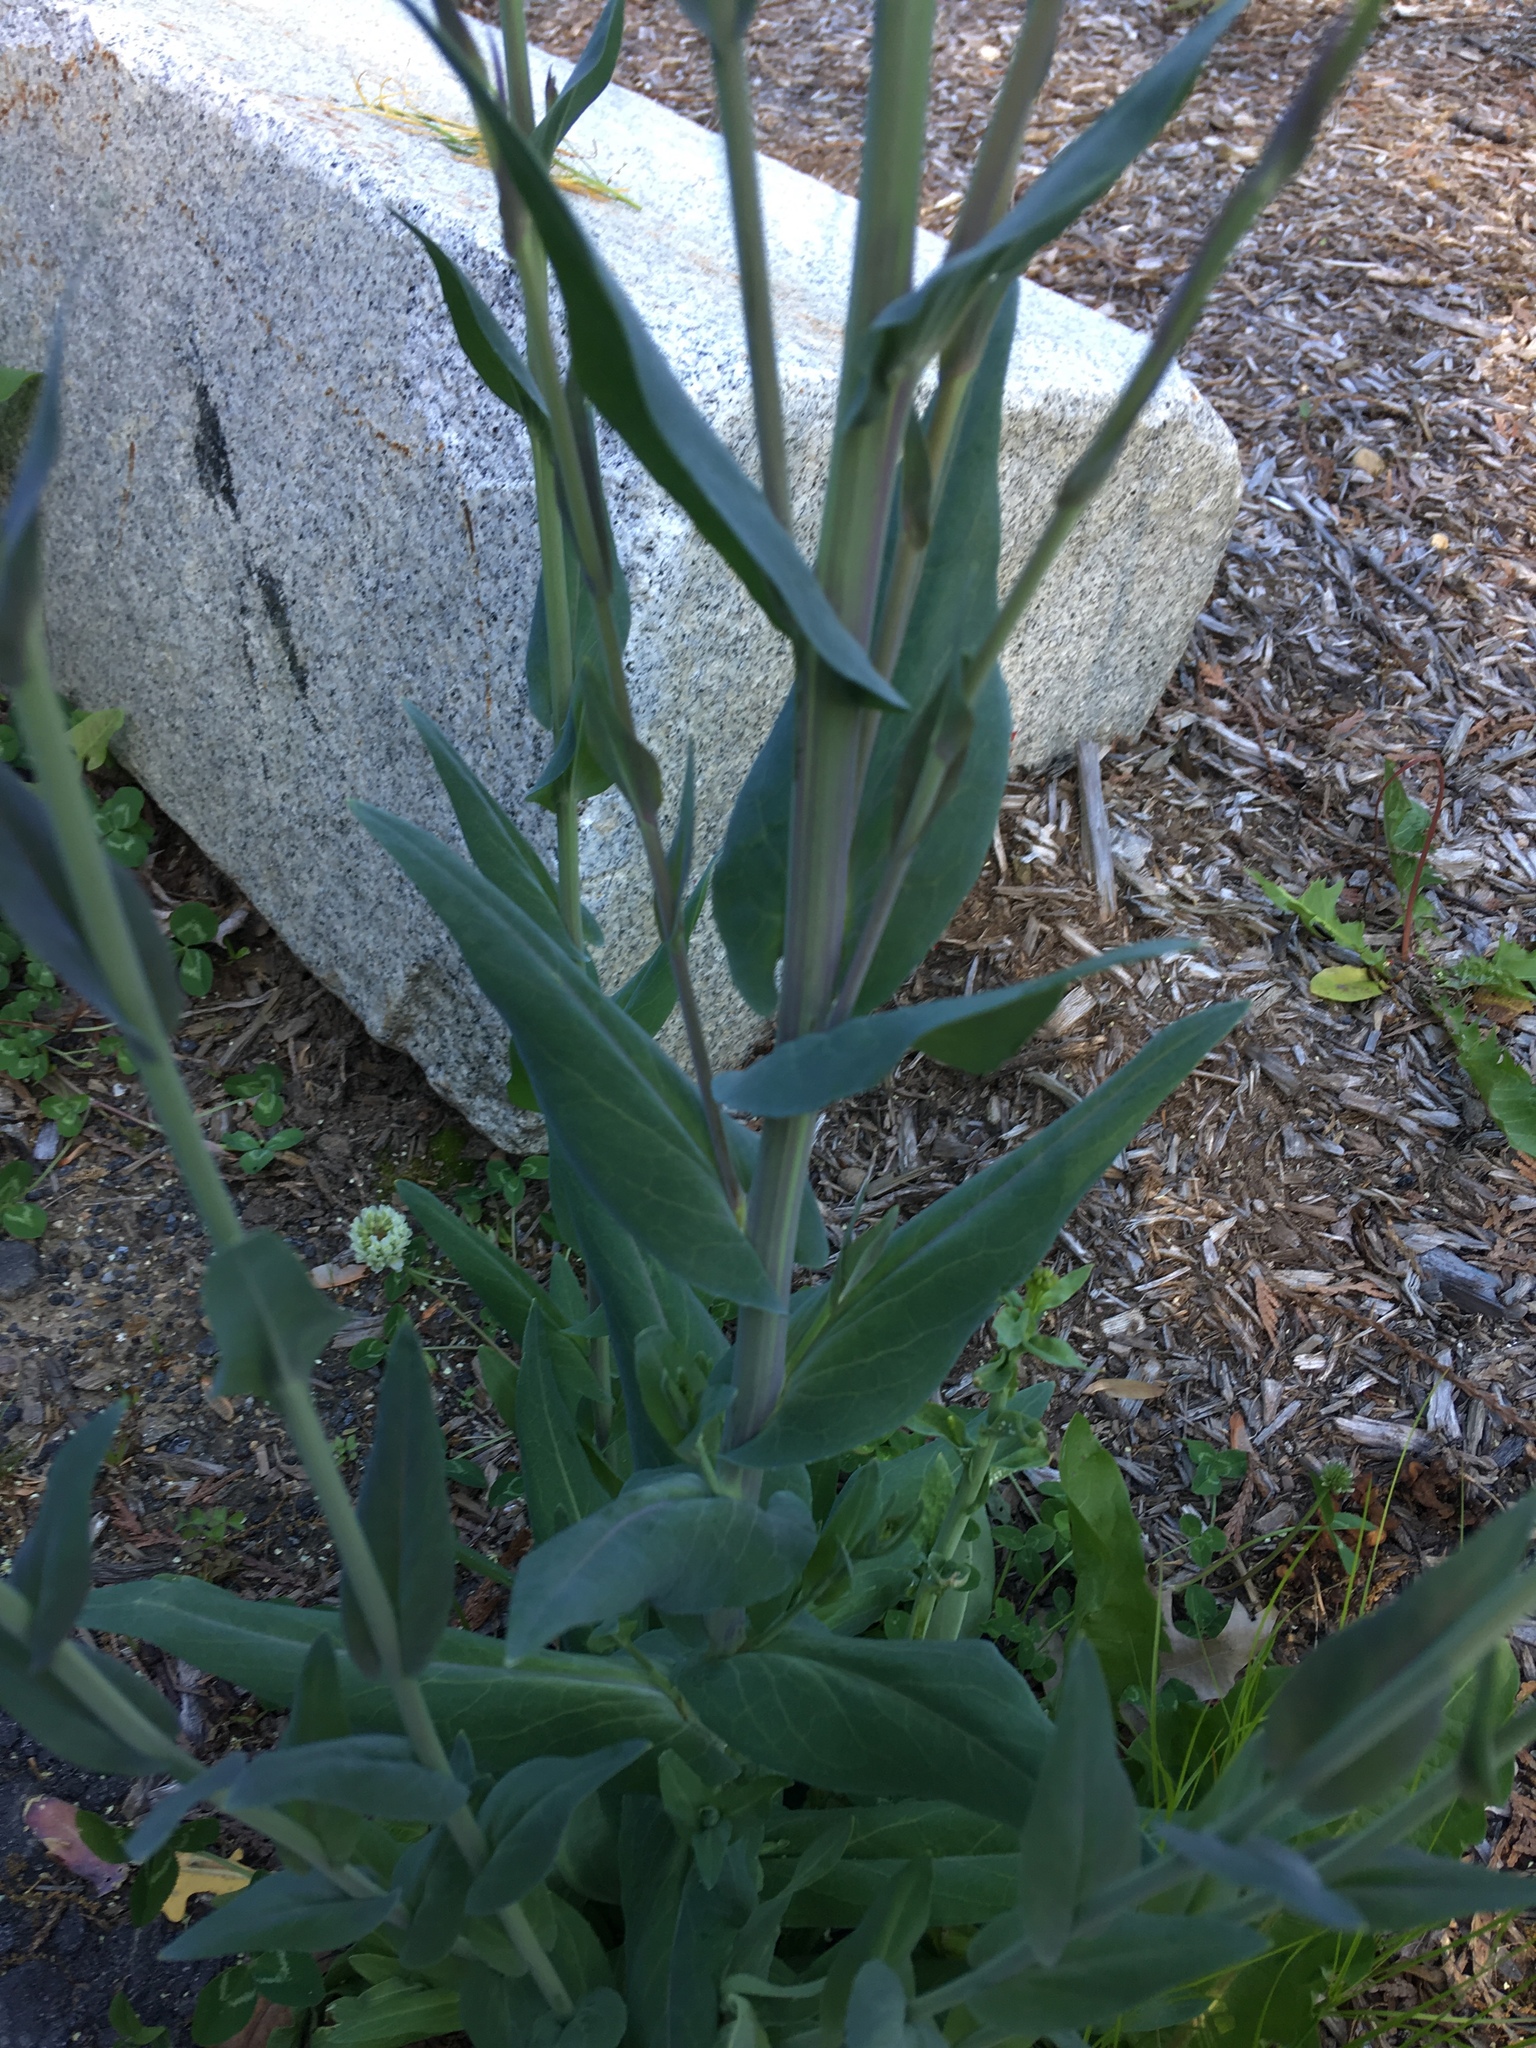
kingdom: Plantae
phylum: Tracheophyta
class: Magnoliopsida
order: Brassicales
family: Brassicaceae
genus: Turritis
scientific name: Turritis glabra
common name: Tower rockcress
